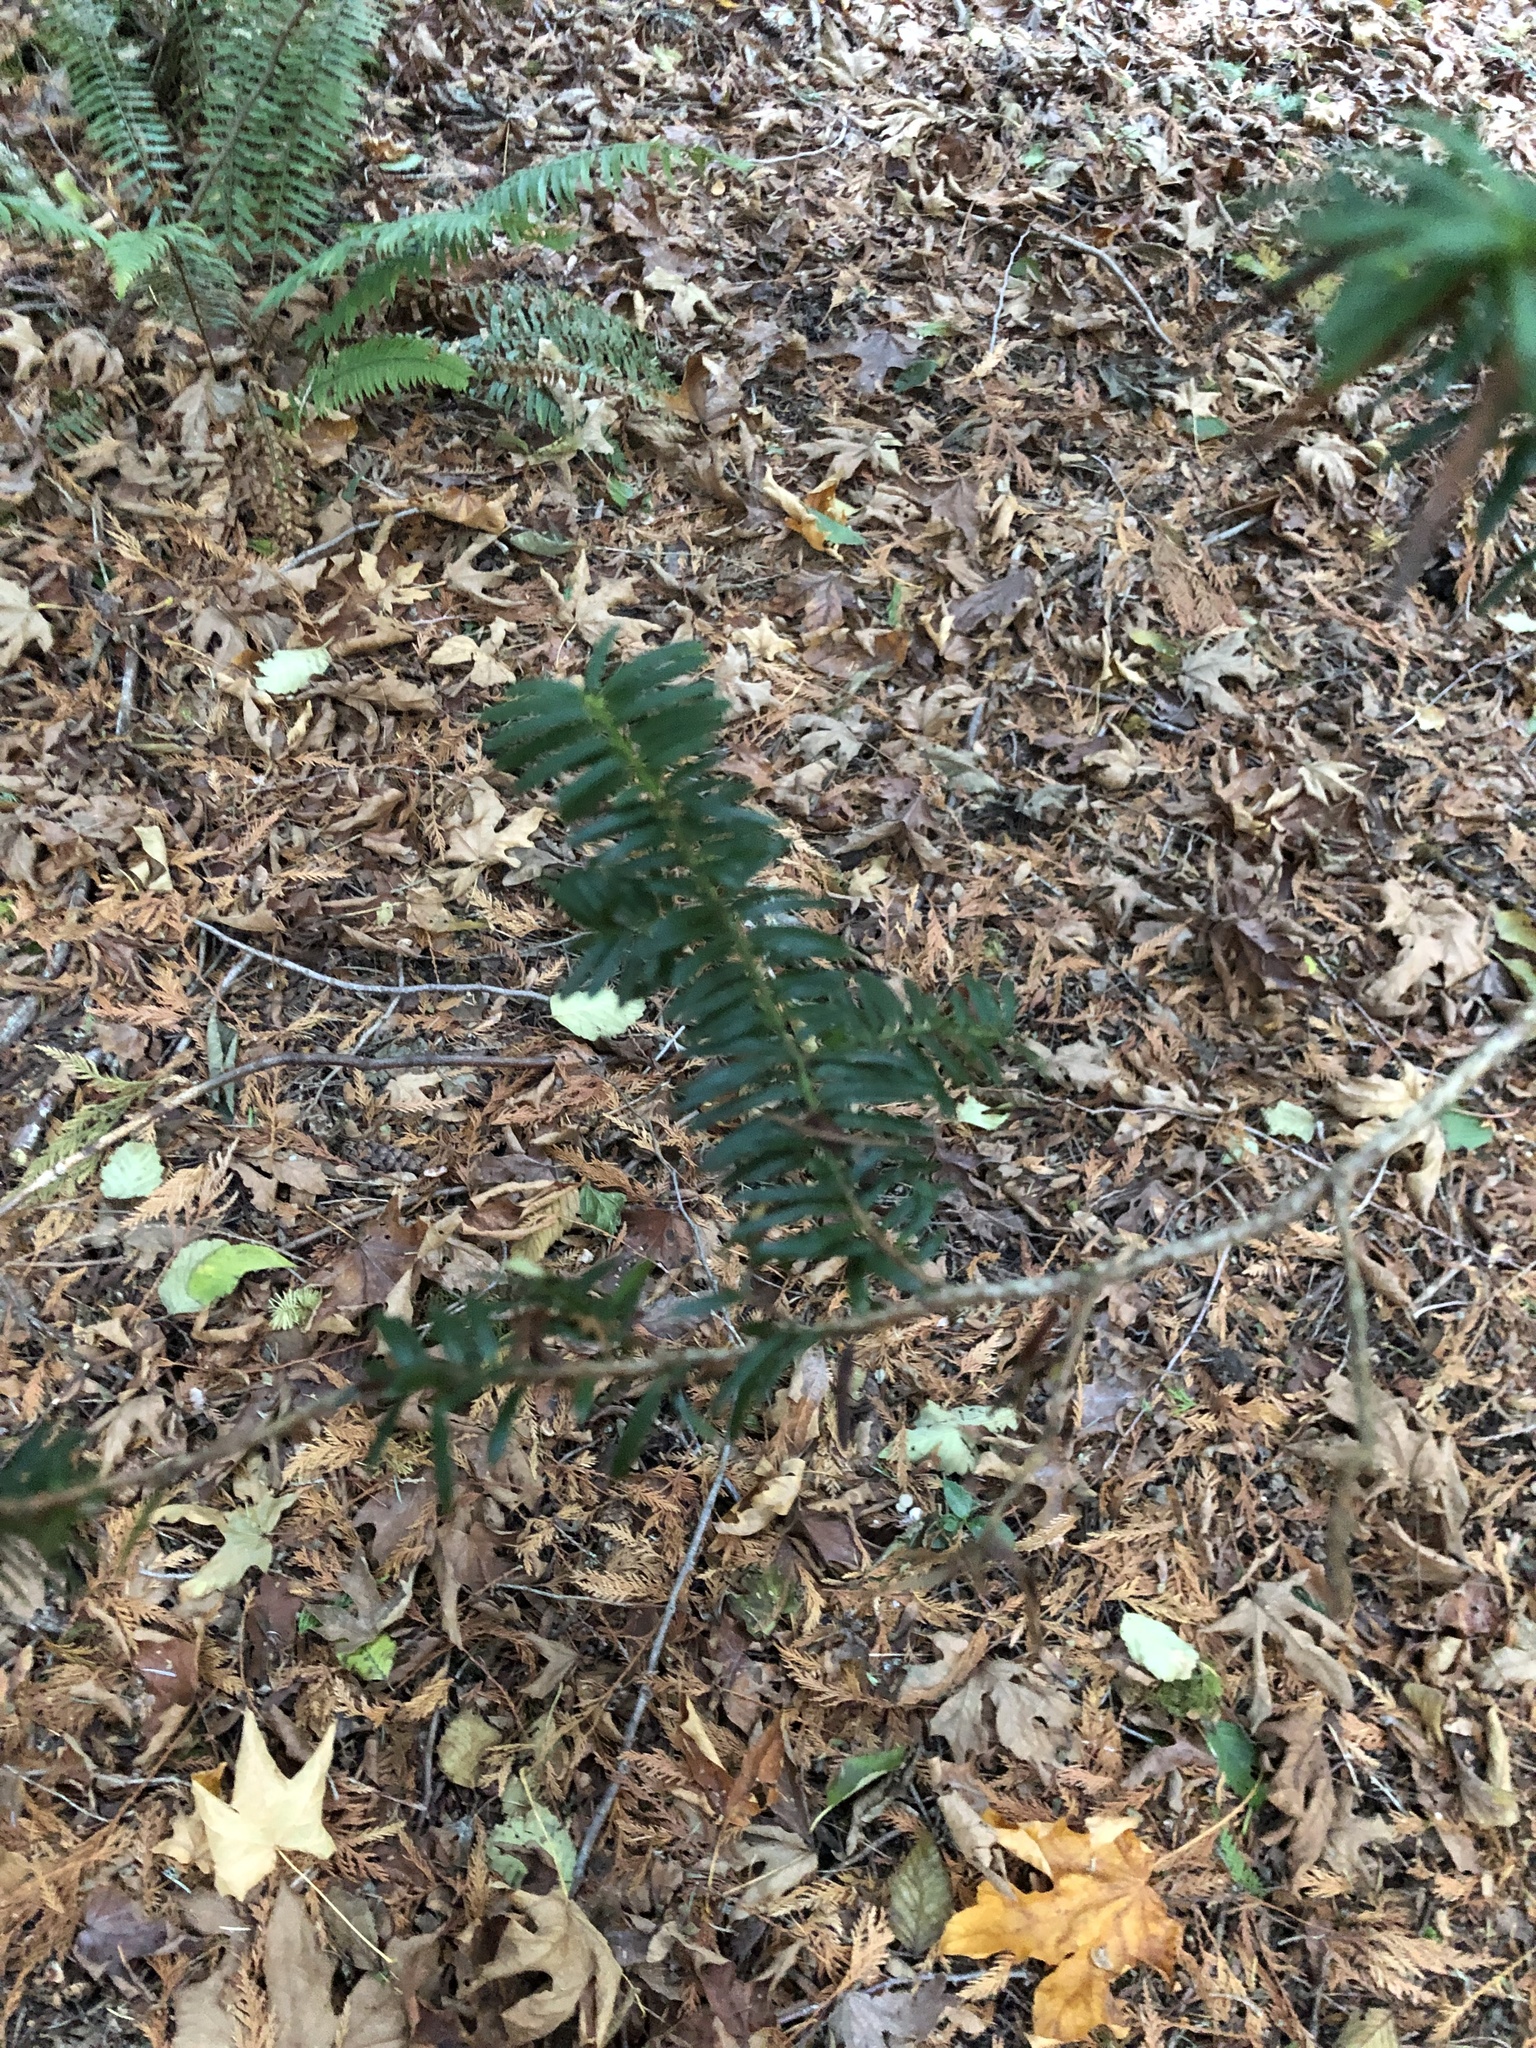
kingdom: Plantae
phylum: Tracheophyta
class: Pinopsida
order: Pinales
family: Taxaceae
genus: Taxus
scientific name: Taxus brevifolia
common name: Pacific yew
